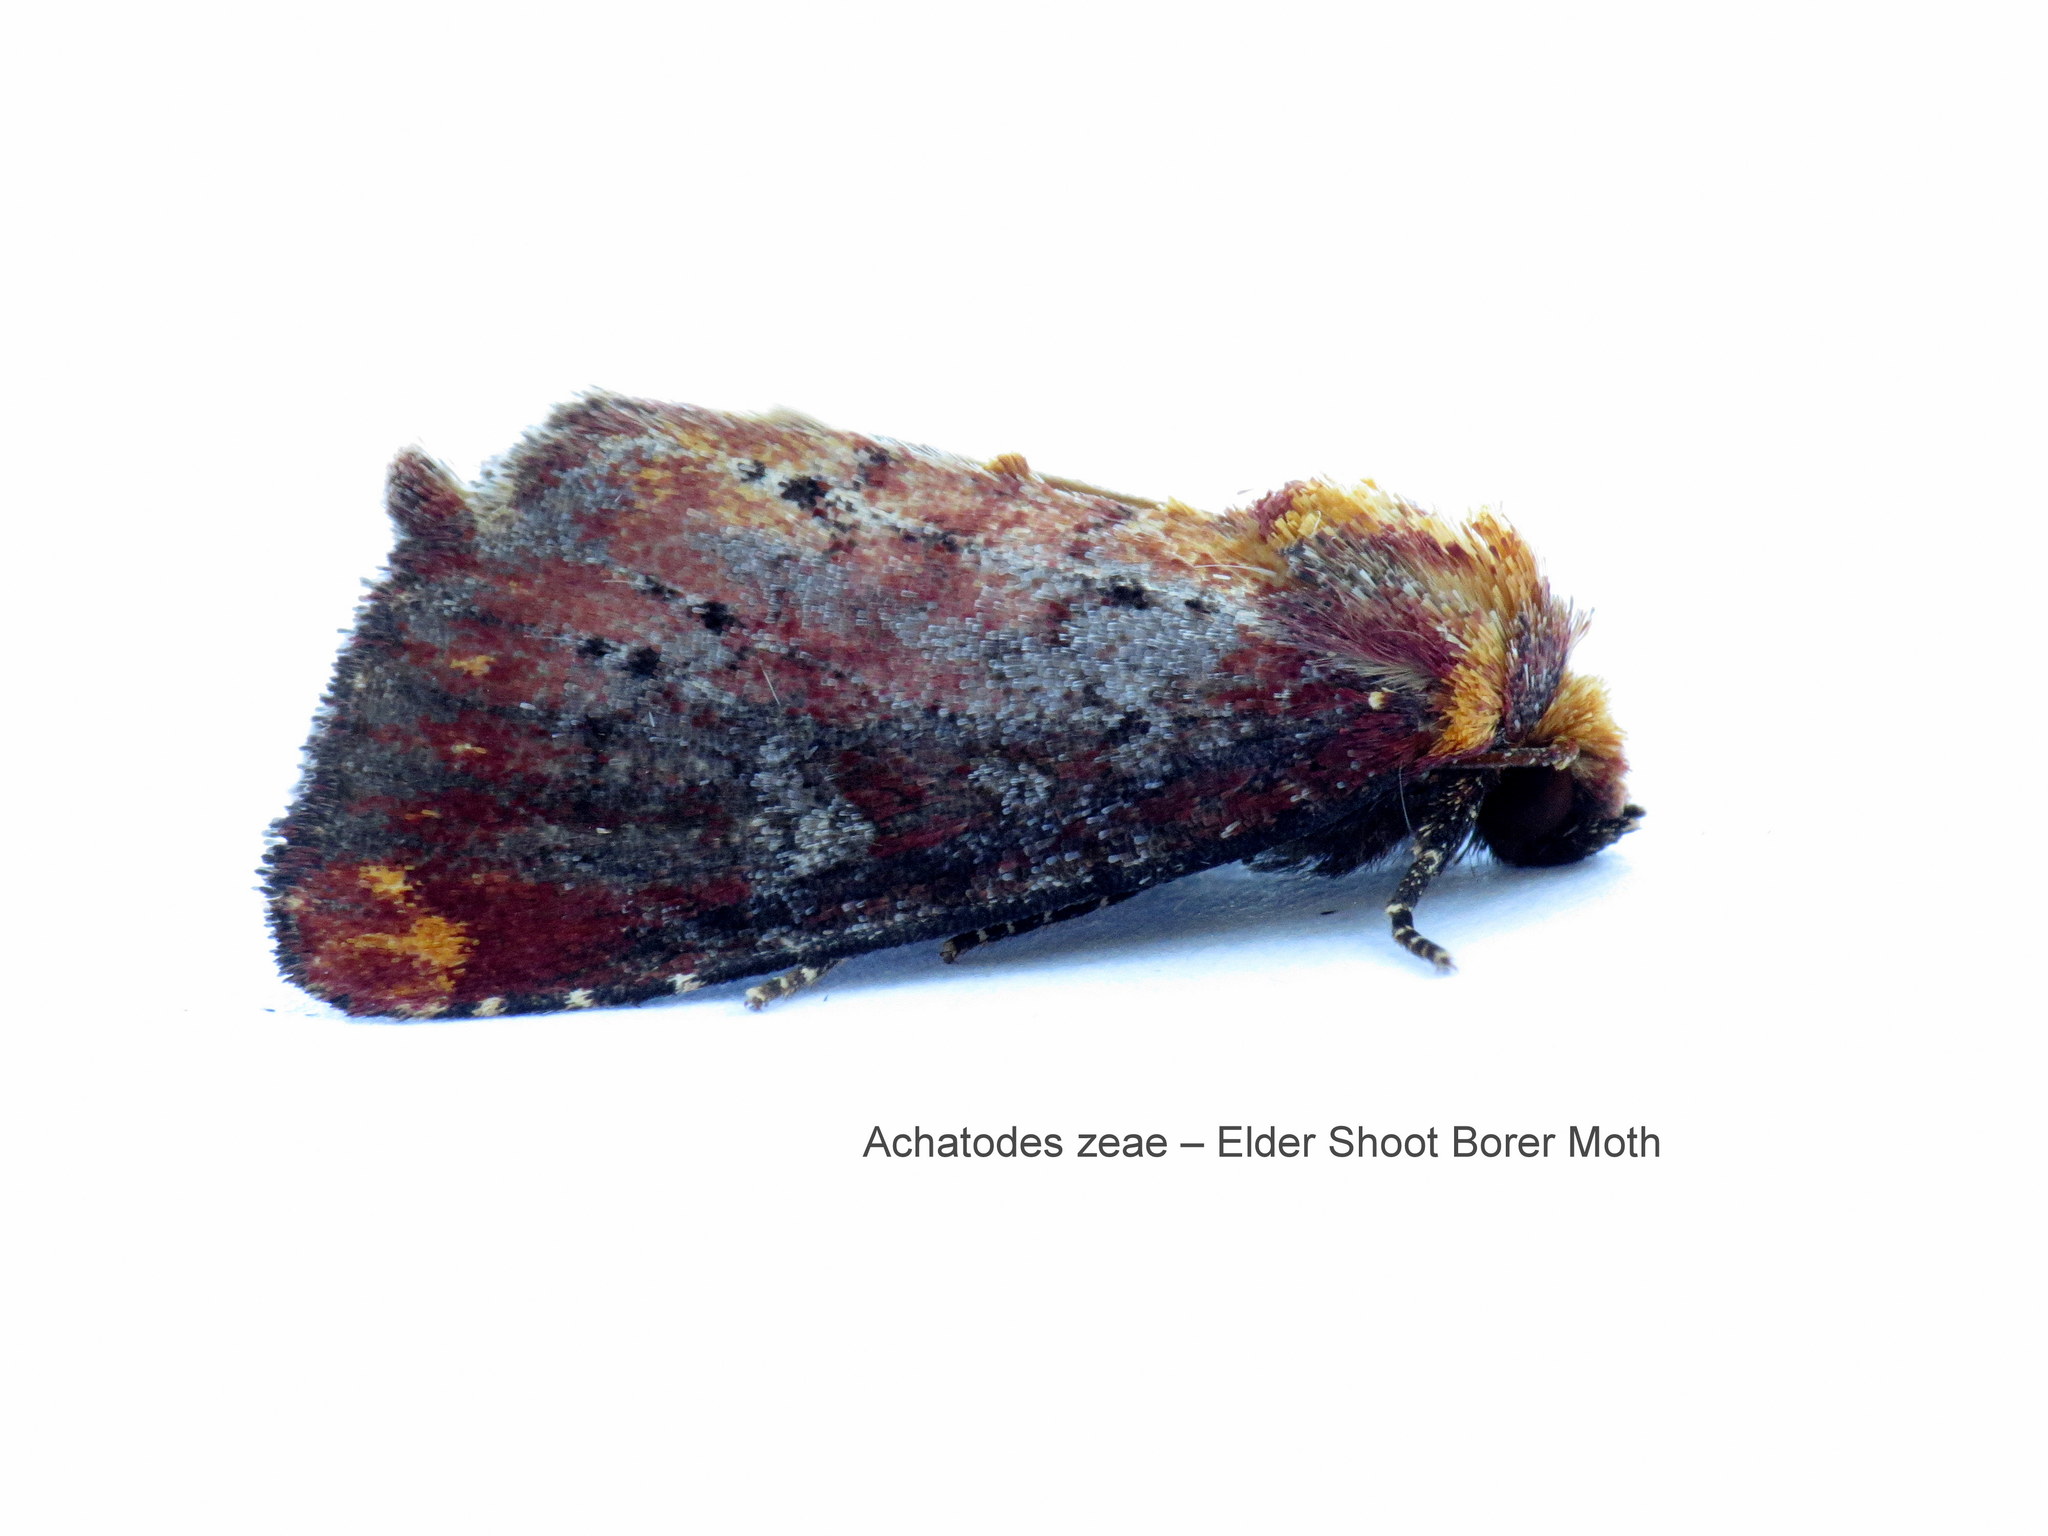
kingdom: Animalia
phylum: Arthropoda
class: Insecta
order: Lepidoptera
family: Noctuidae
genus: Achatodes
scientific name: Achatodes zeae
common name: Elder shoot borer
